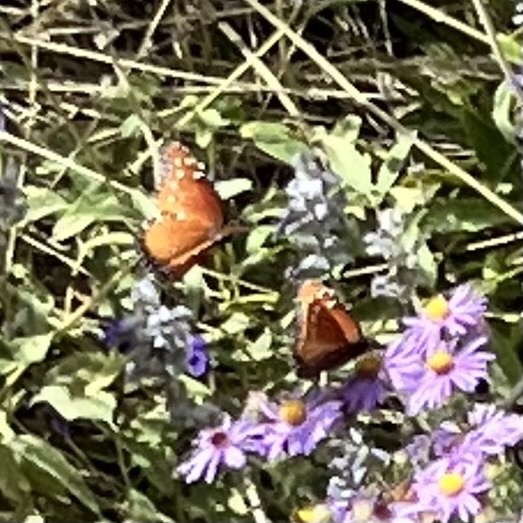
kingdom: Animalia
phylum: Arthropoda
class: Insecta
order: Lepidoptera
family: Nymphalidae
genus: Danaus
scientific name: Danaus gilippus
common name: Queen
